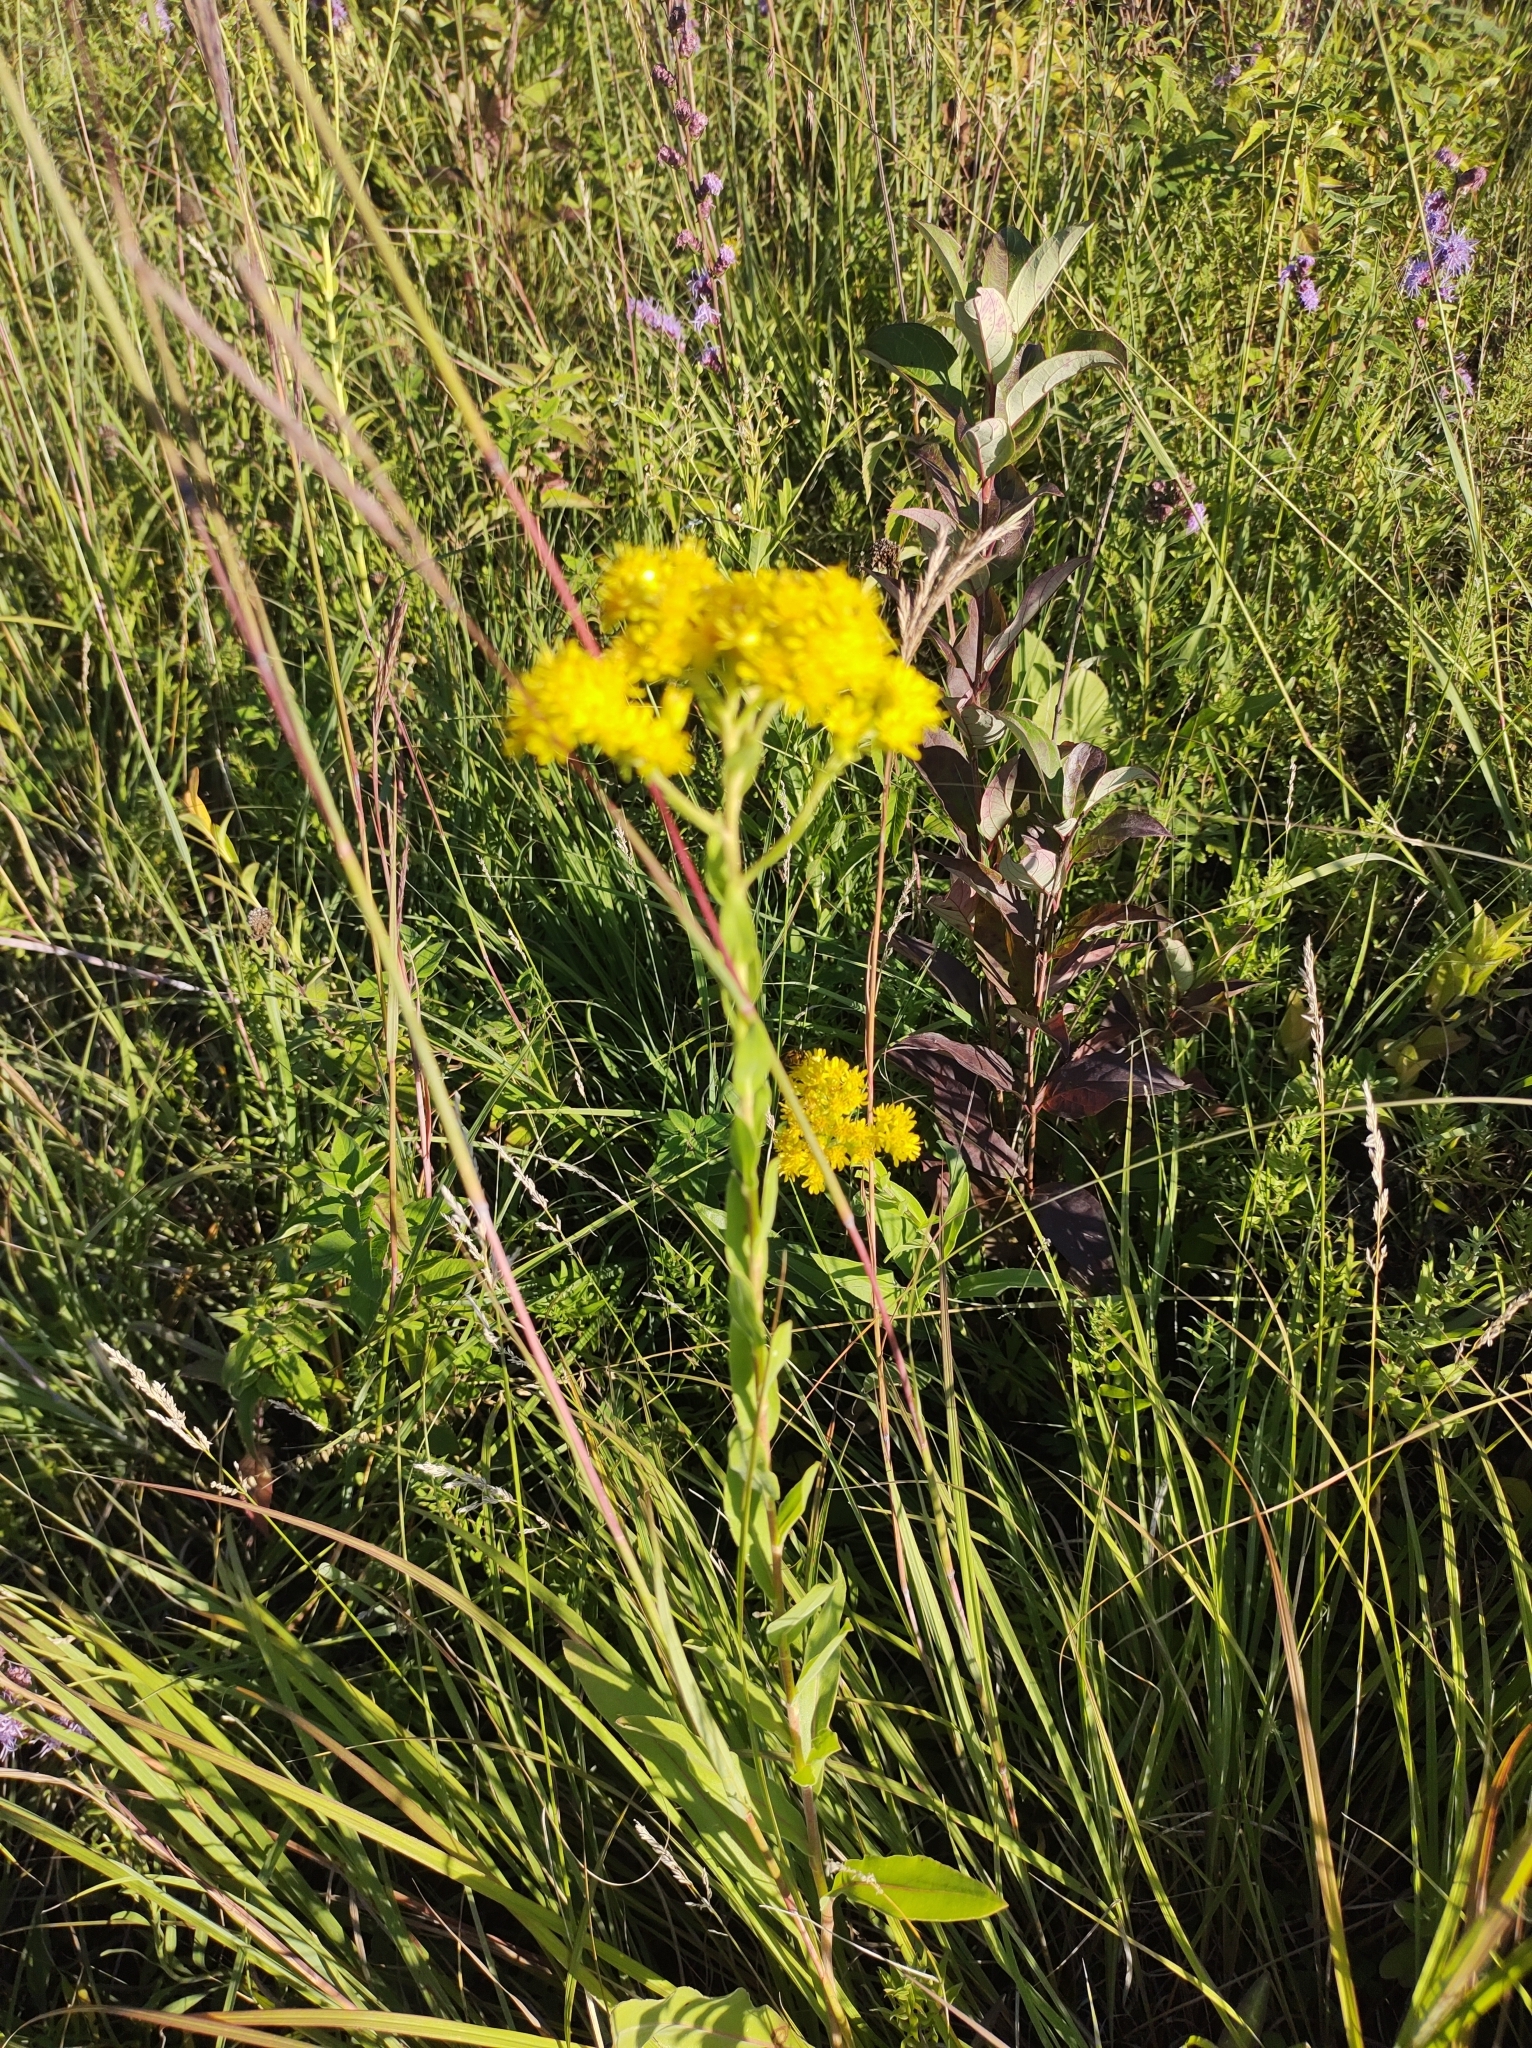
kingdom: Plantae
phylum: Tracheophyta
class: Magnoliopsida
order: Asterales
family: Asteraceae
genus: Solidago
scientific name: Solidago rigida
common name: Rigid goldenrod
